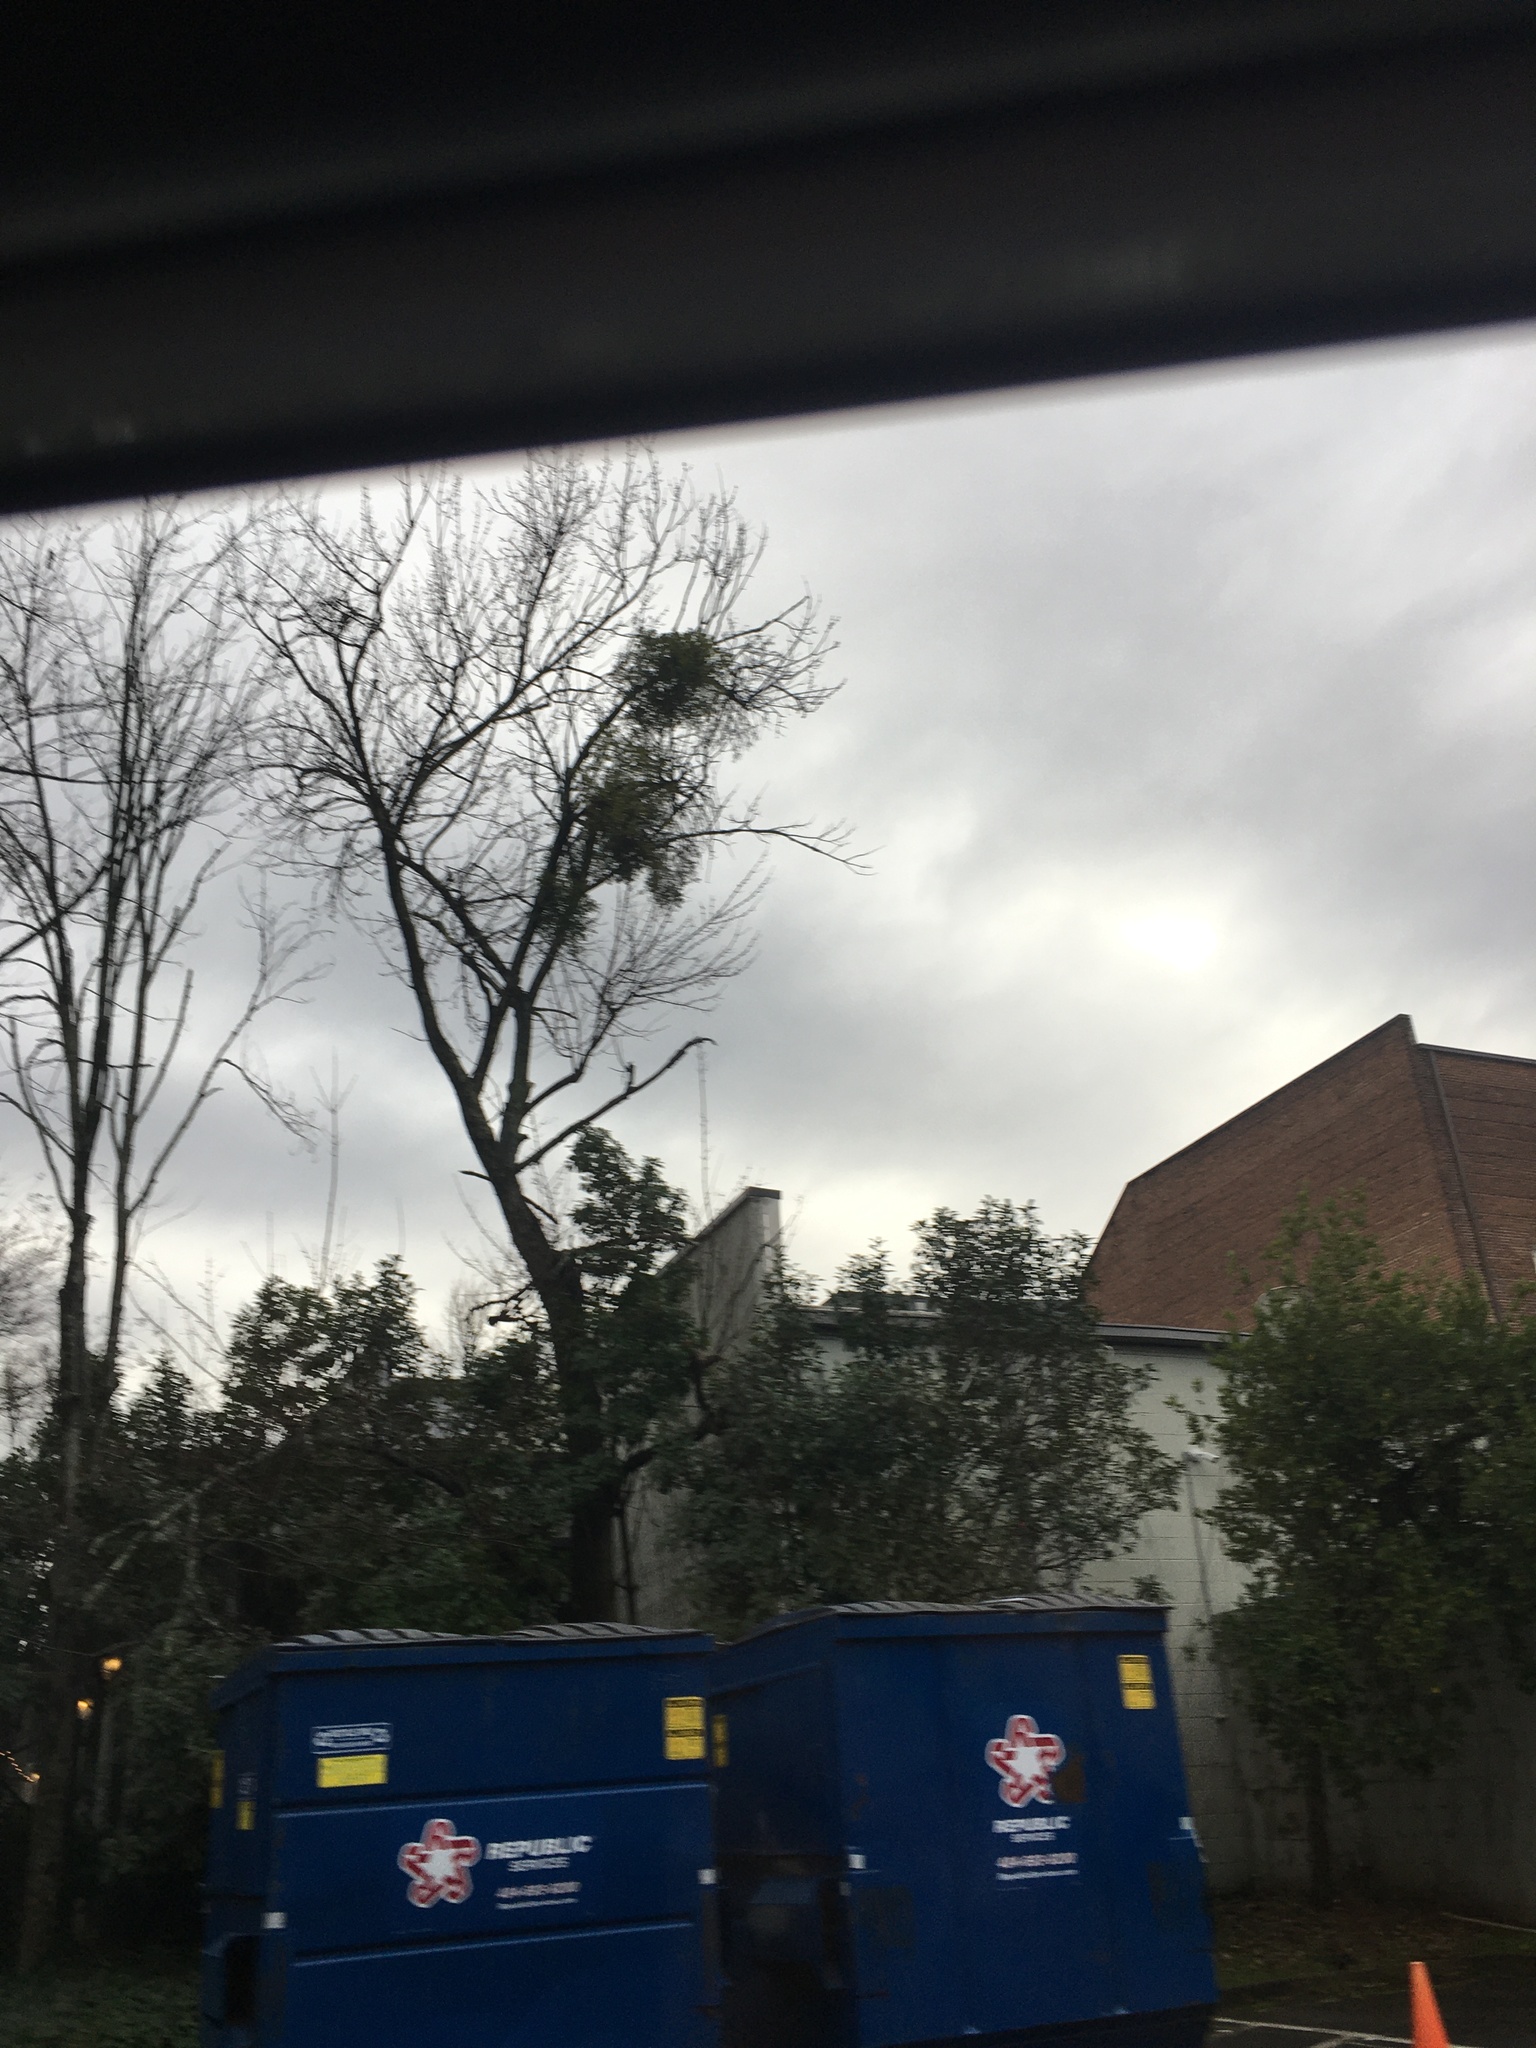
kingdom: Plantae
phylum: Tracheophyta
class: Magnoliopsida
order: Santalales
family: Viscaceae
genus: Phoradendron
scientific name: Phoradendron leucarpum
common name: Pacific mistletoe
